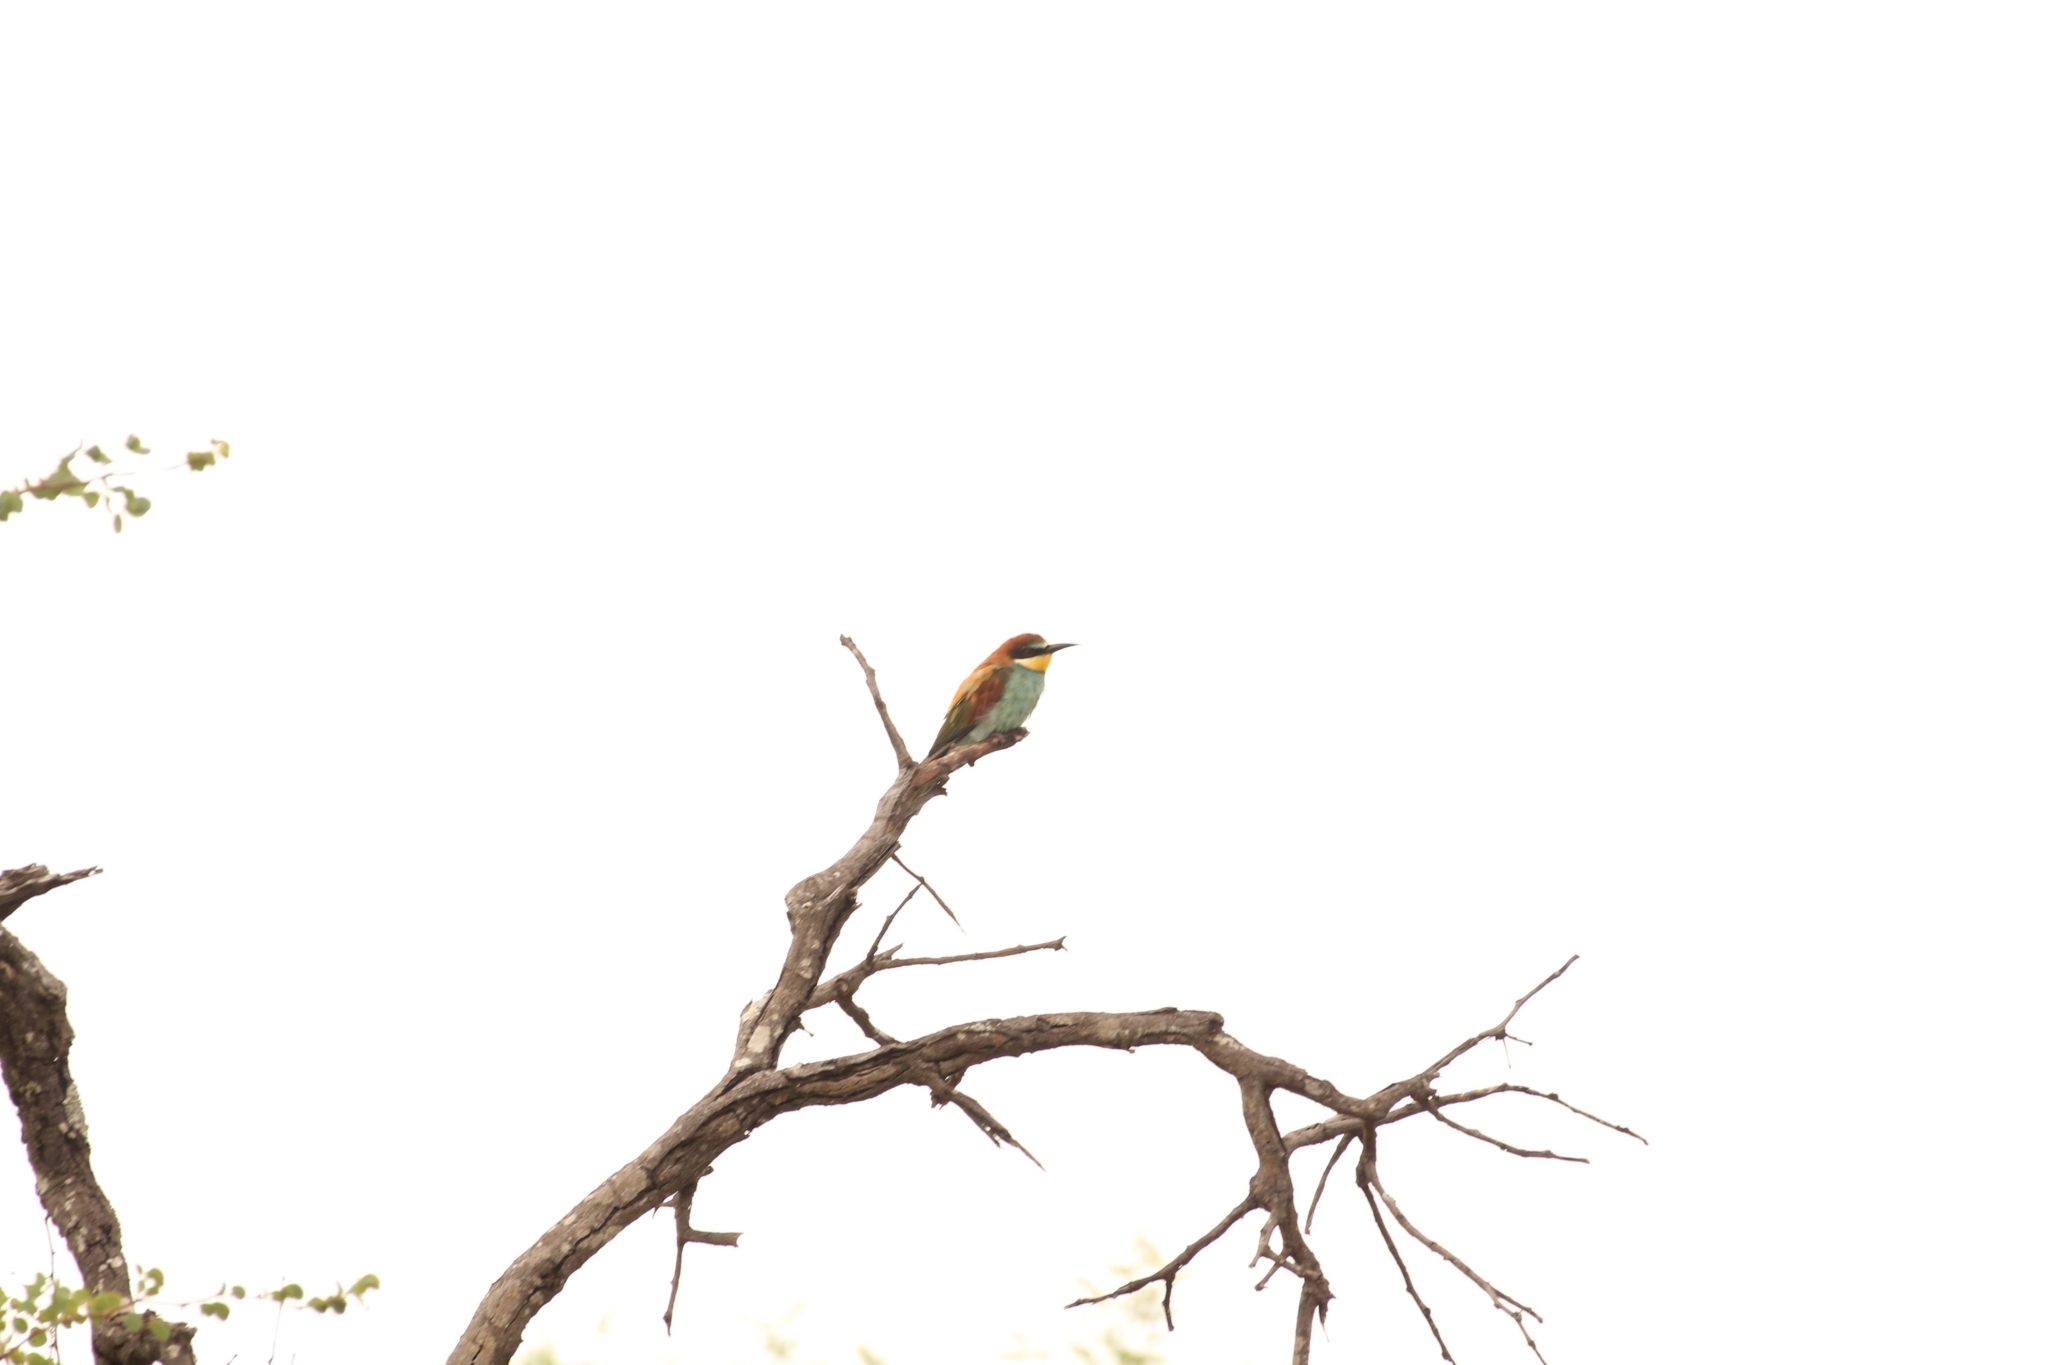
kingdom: Animalia
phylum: Chordata
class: Aves
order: Coraciiformes
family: Meropidae
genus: Merops
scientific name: Merops apiaster
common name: European bee-eater
